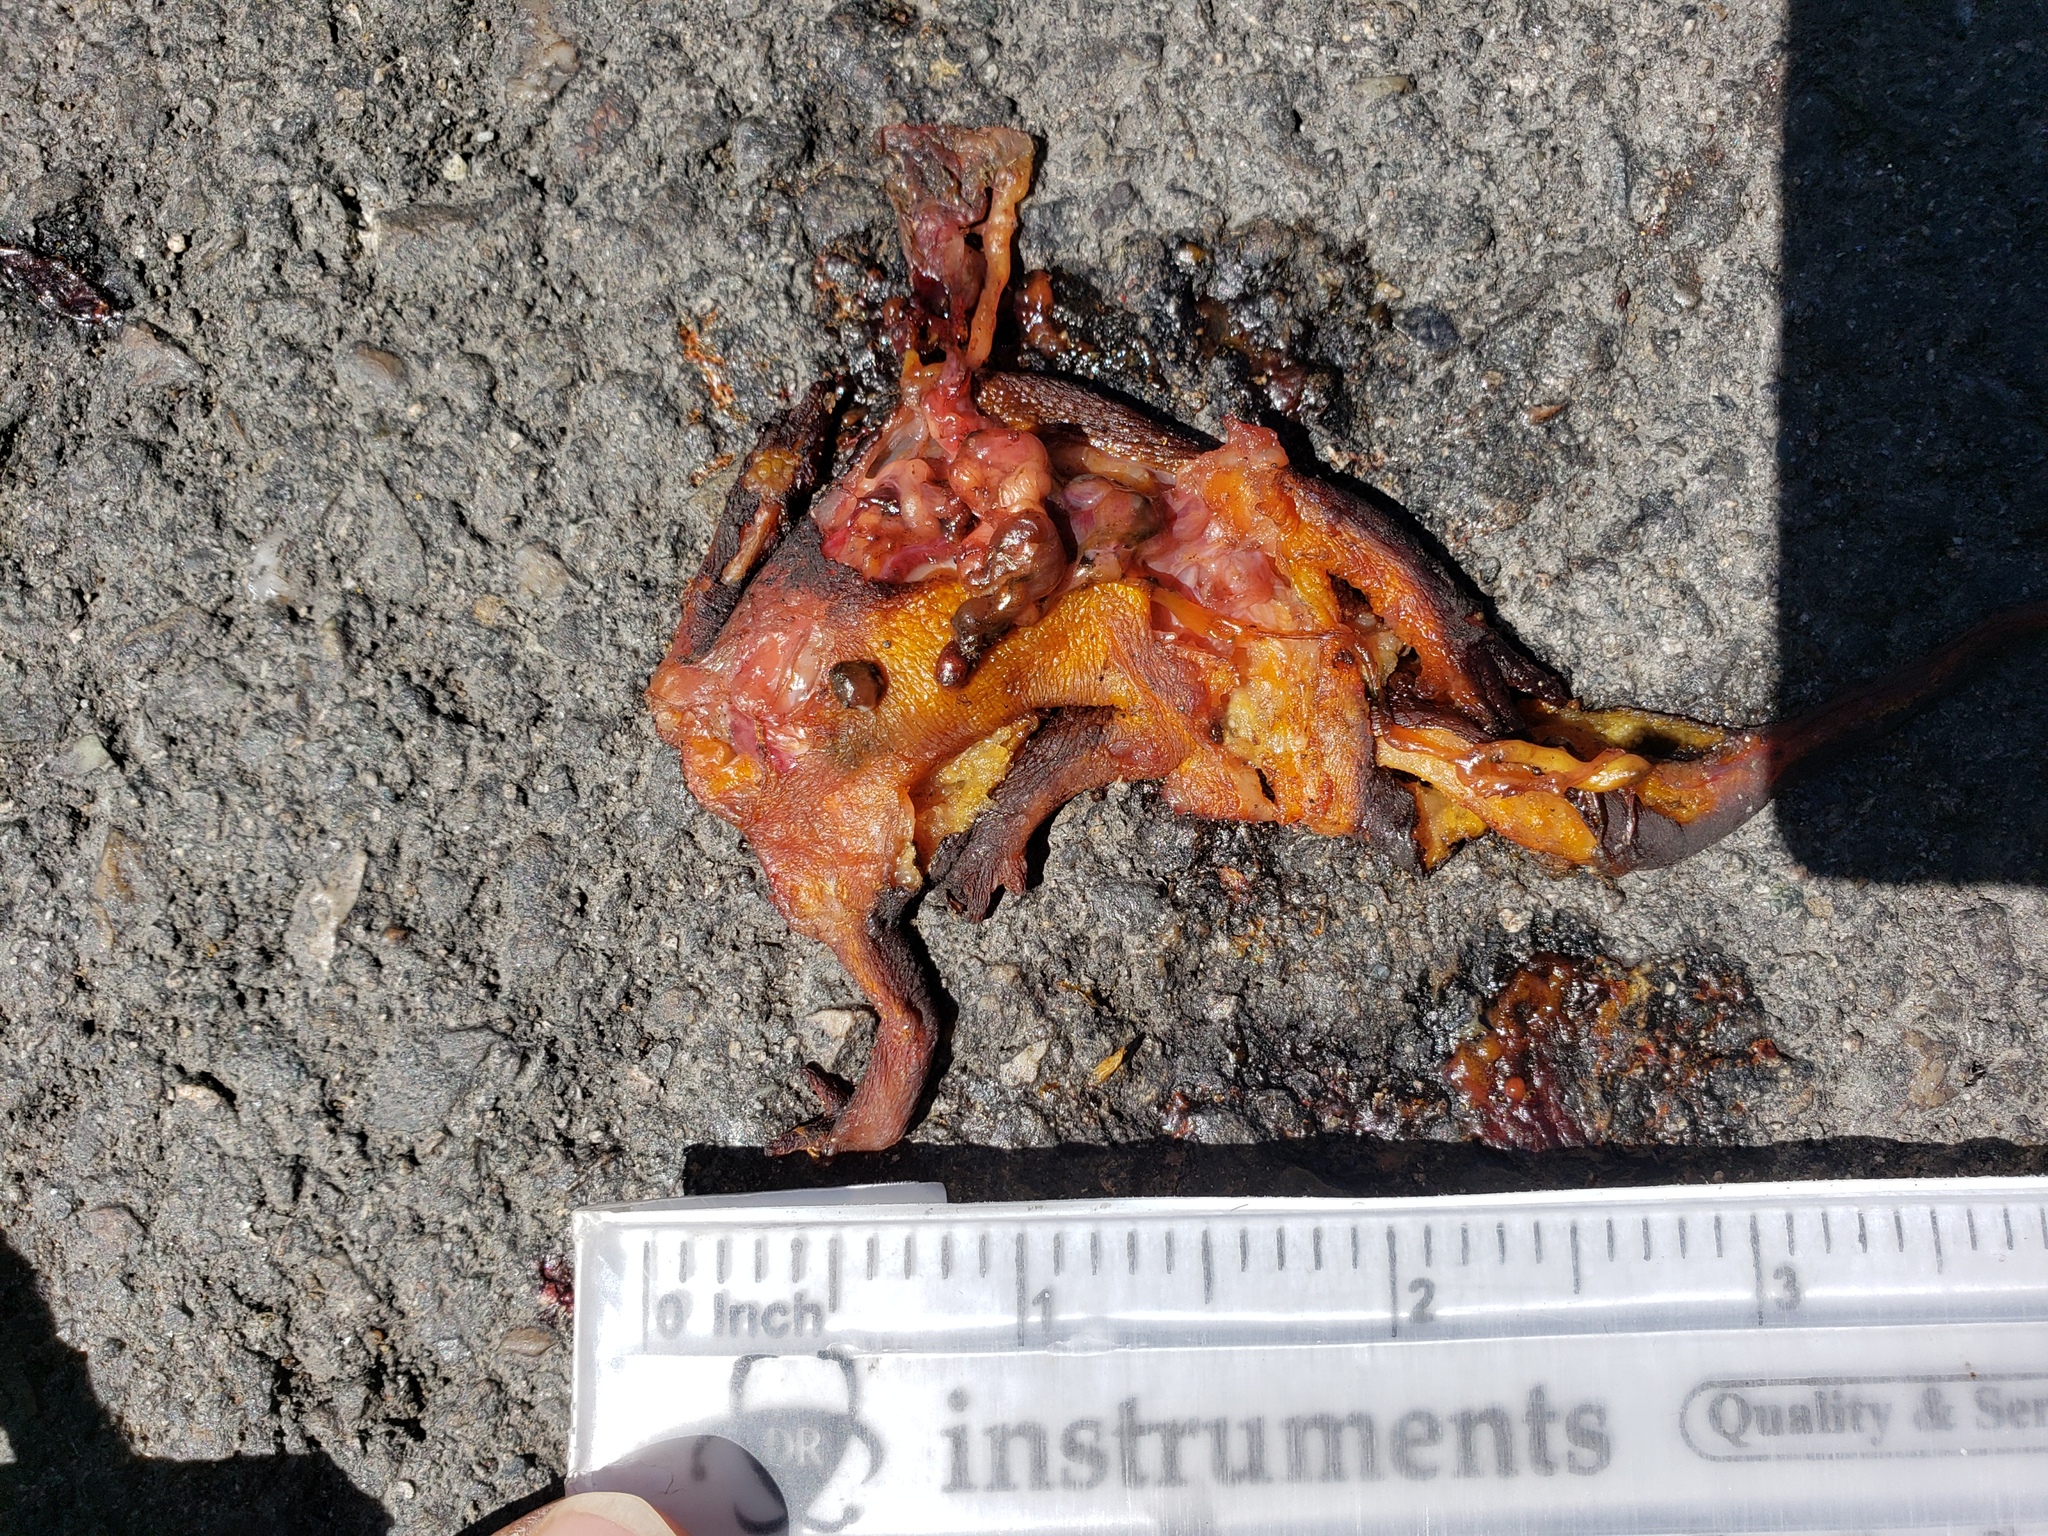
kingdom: Animalia
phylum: Chordata
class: Amphibia
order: Caudata
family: Salamandridae
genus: Taricha
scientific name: Taricha
